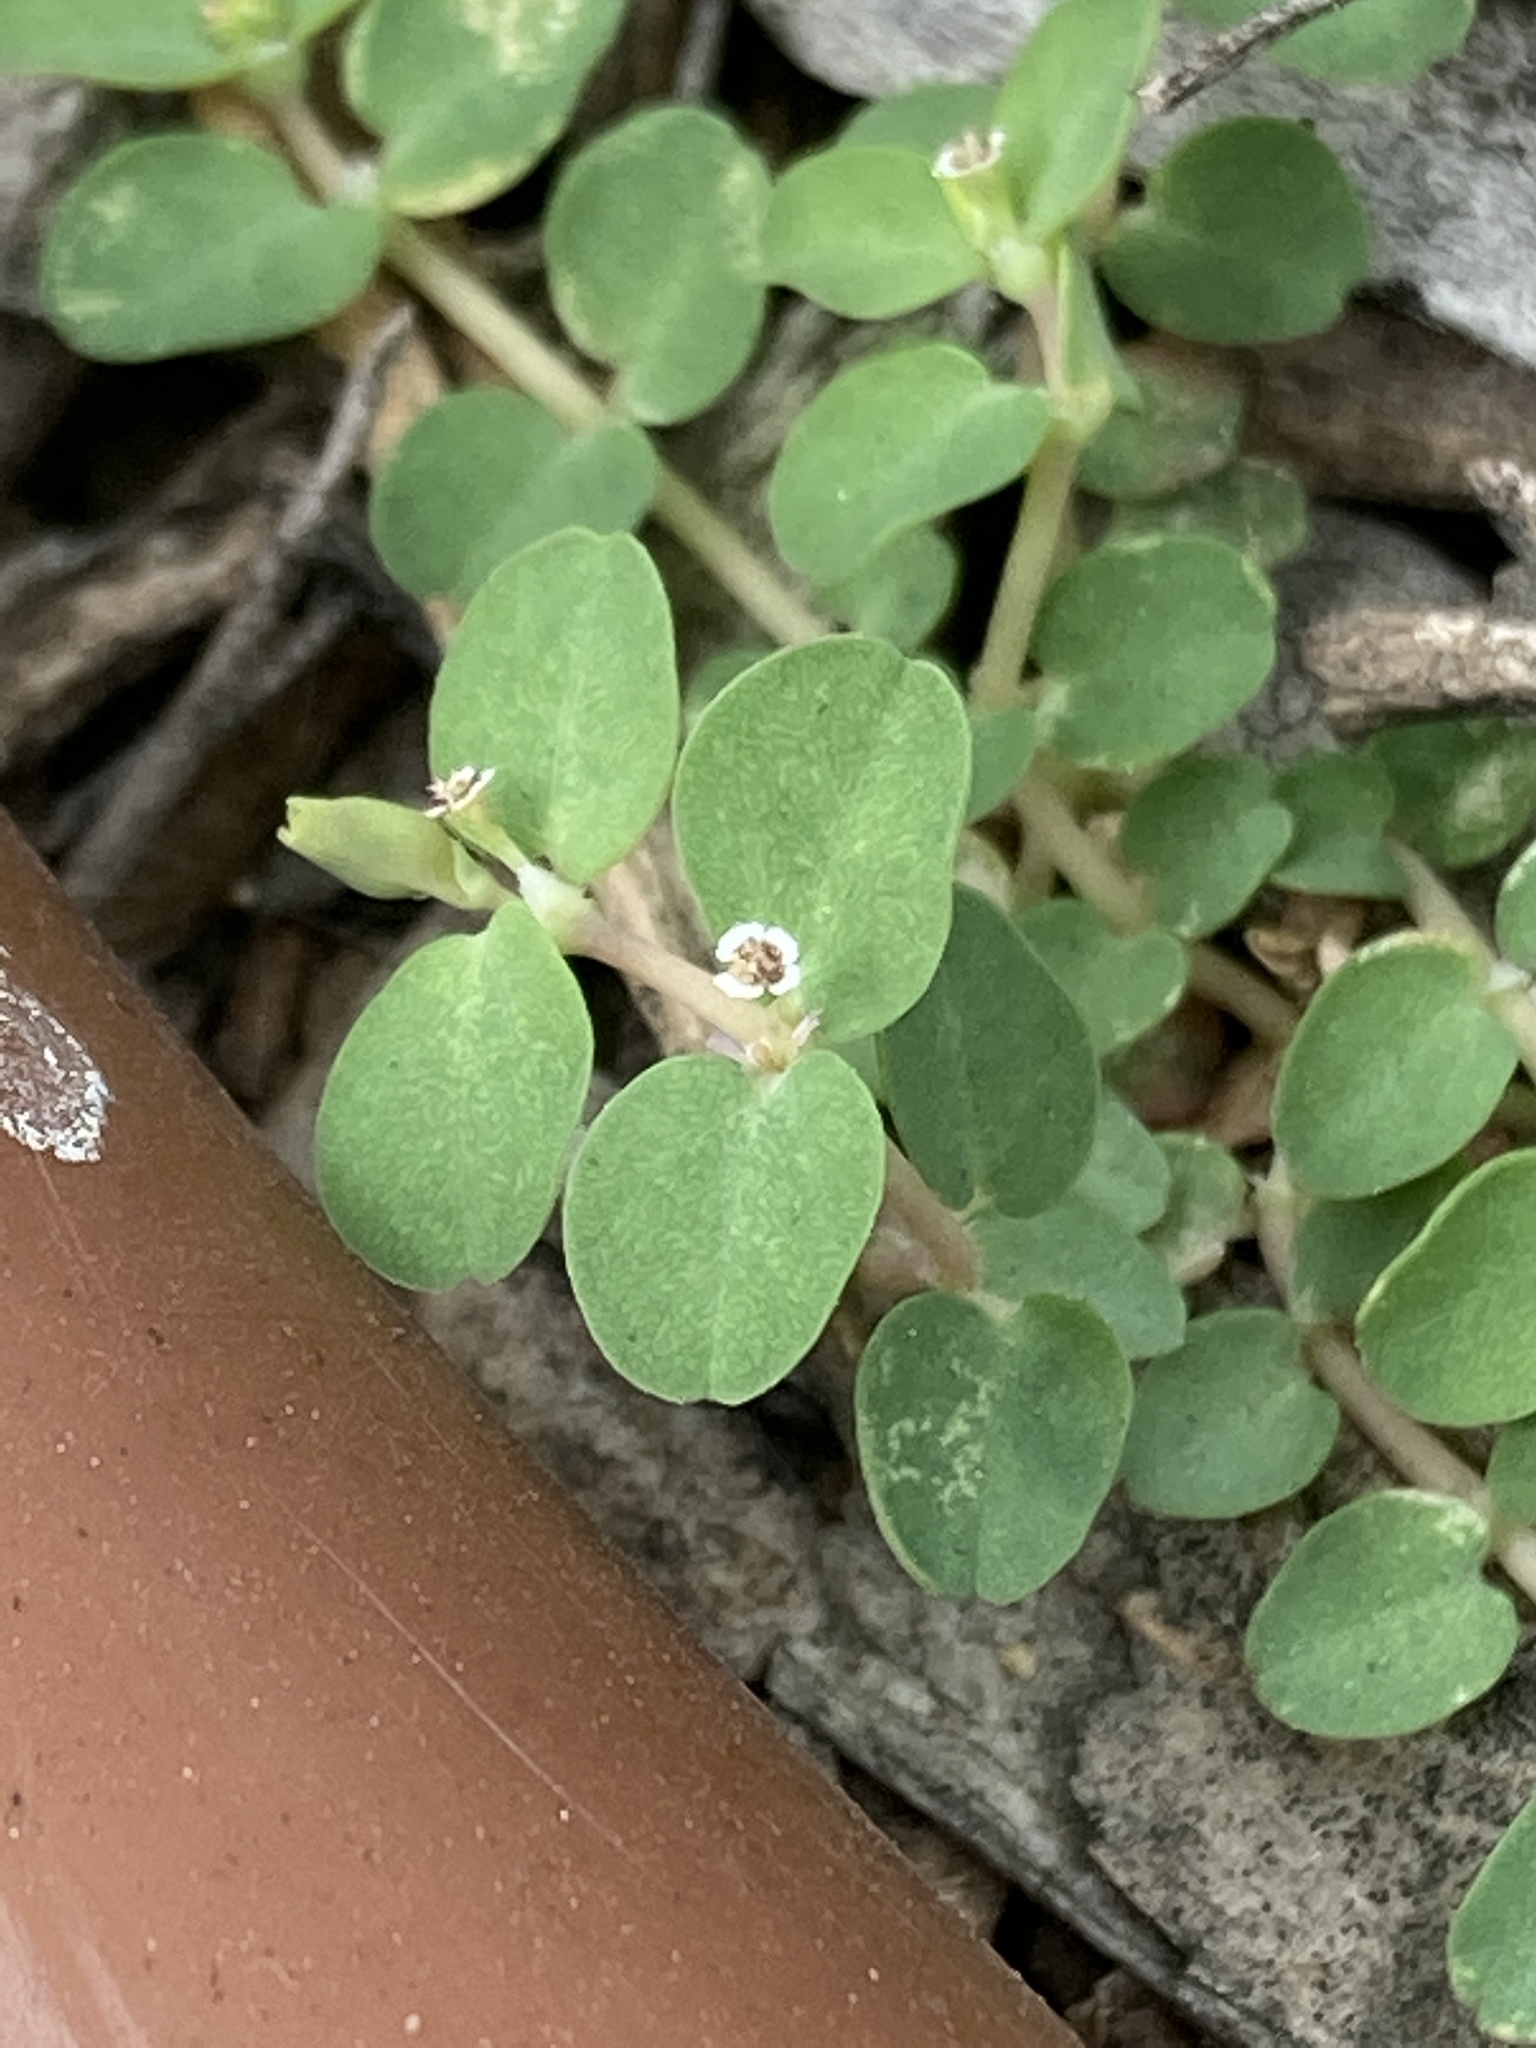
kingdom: Plantae
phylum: Tracheophyta
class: Magnoliopsida
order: Malpighiales
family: Euphorbiaceae
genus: Euphorbia
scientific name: Euphorbia serpens
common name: Matted sandmat
